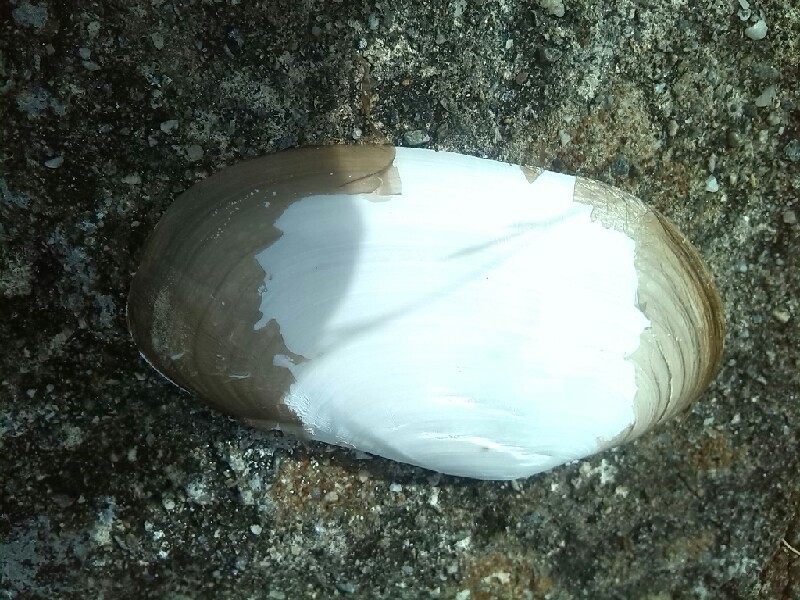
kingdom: Animalia
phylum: Mollusca
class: Bivalvia
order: Venerida
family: Mactridae
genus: Lutraria
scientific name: Lutraria lutraria
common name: Common otter shell
